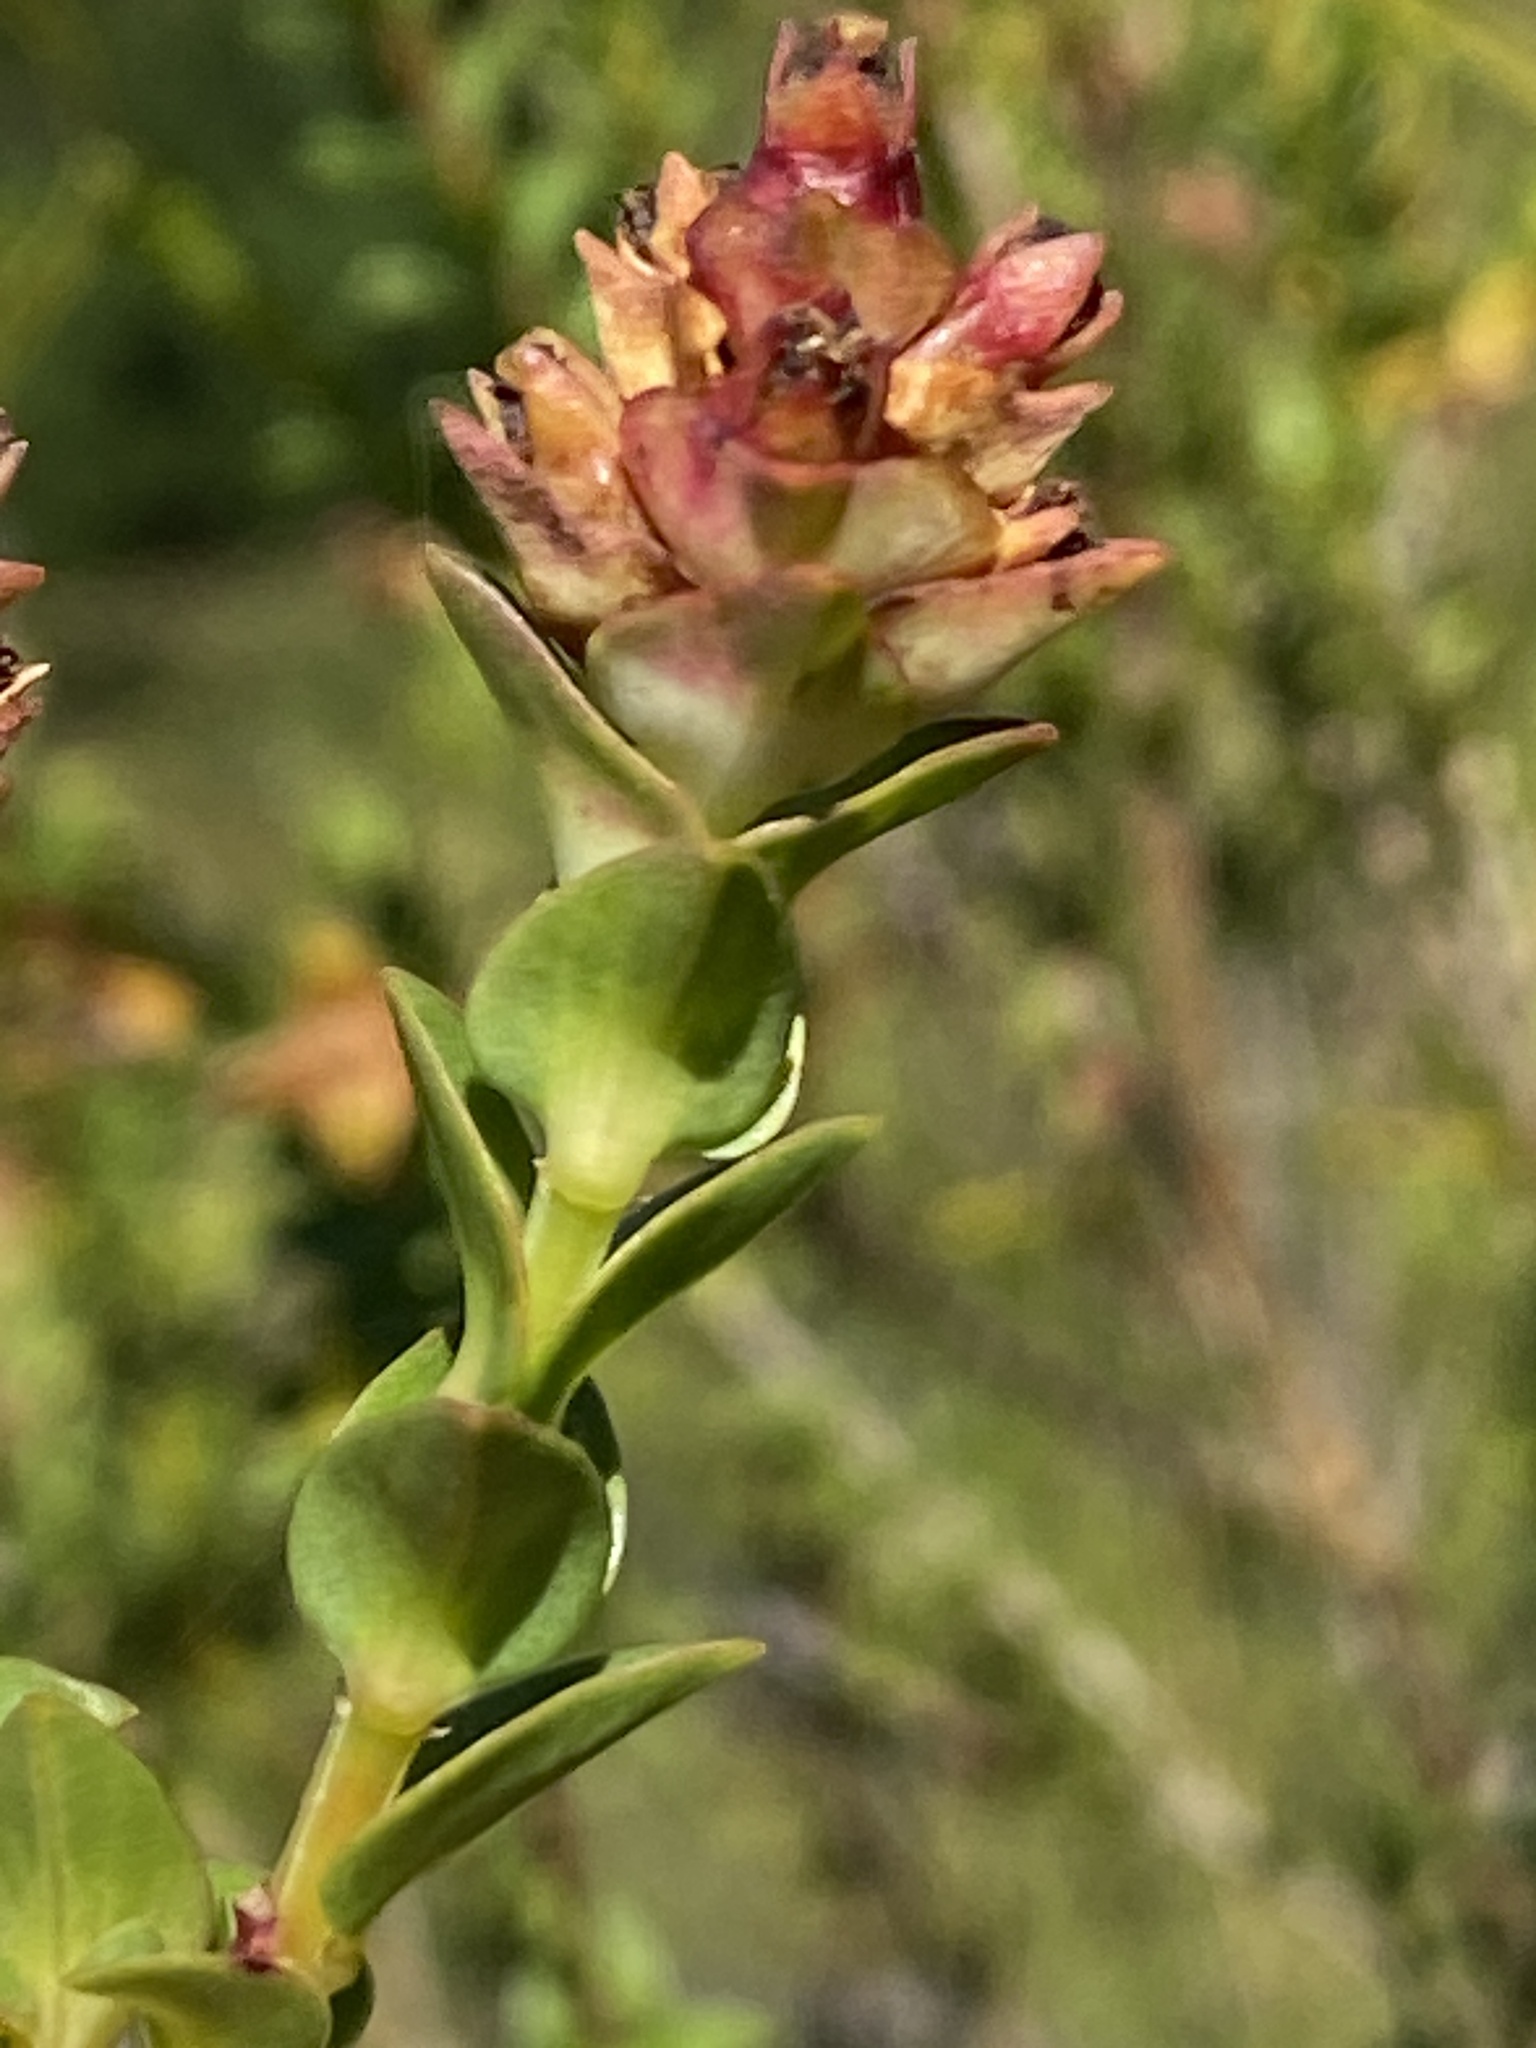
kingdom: Plantae
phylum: Tracheophyta
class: Magnoliopsida
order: Myrtales
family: Penaeaceae
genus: Penaea
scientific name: Penaea cneorum
